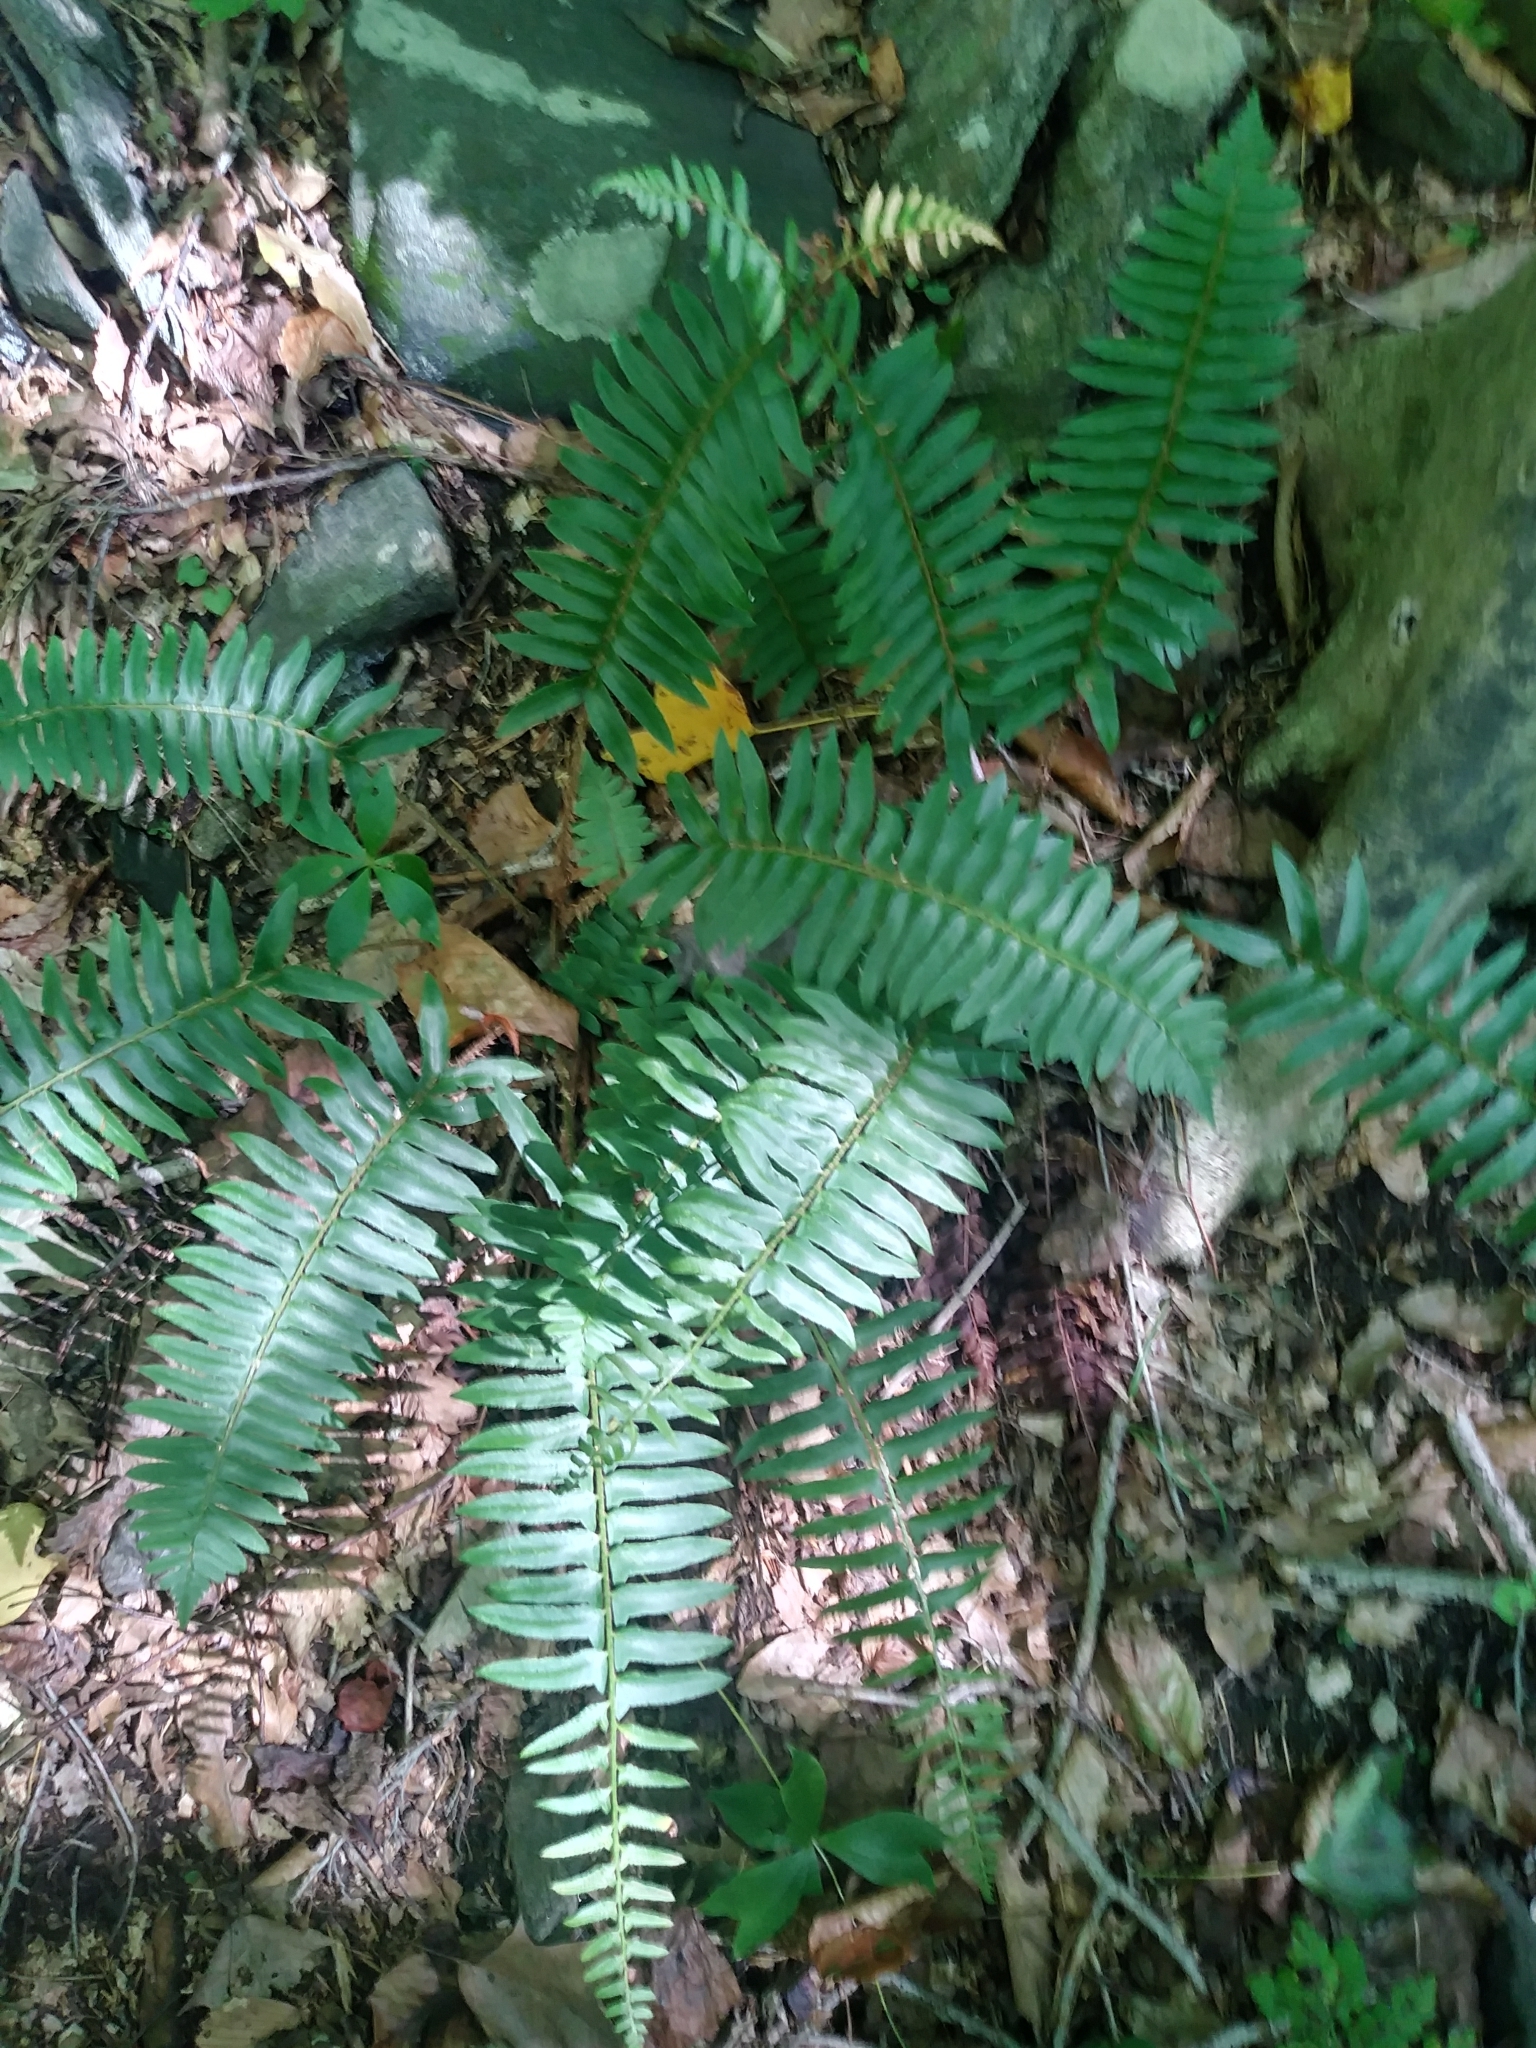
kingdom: Plantae
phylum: Tracheophyta
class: Polypodiopsida
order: Polypodiales
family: Dryopteridaceae
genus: Polystichum
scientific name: Polystichum acrostichoides
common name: Christmas fern
